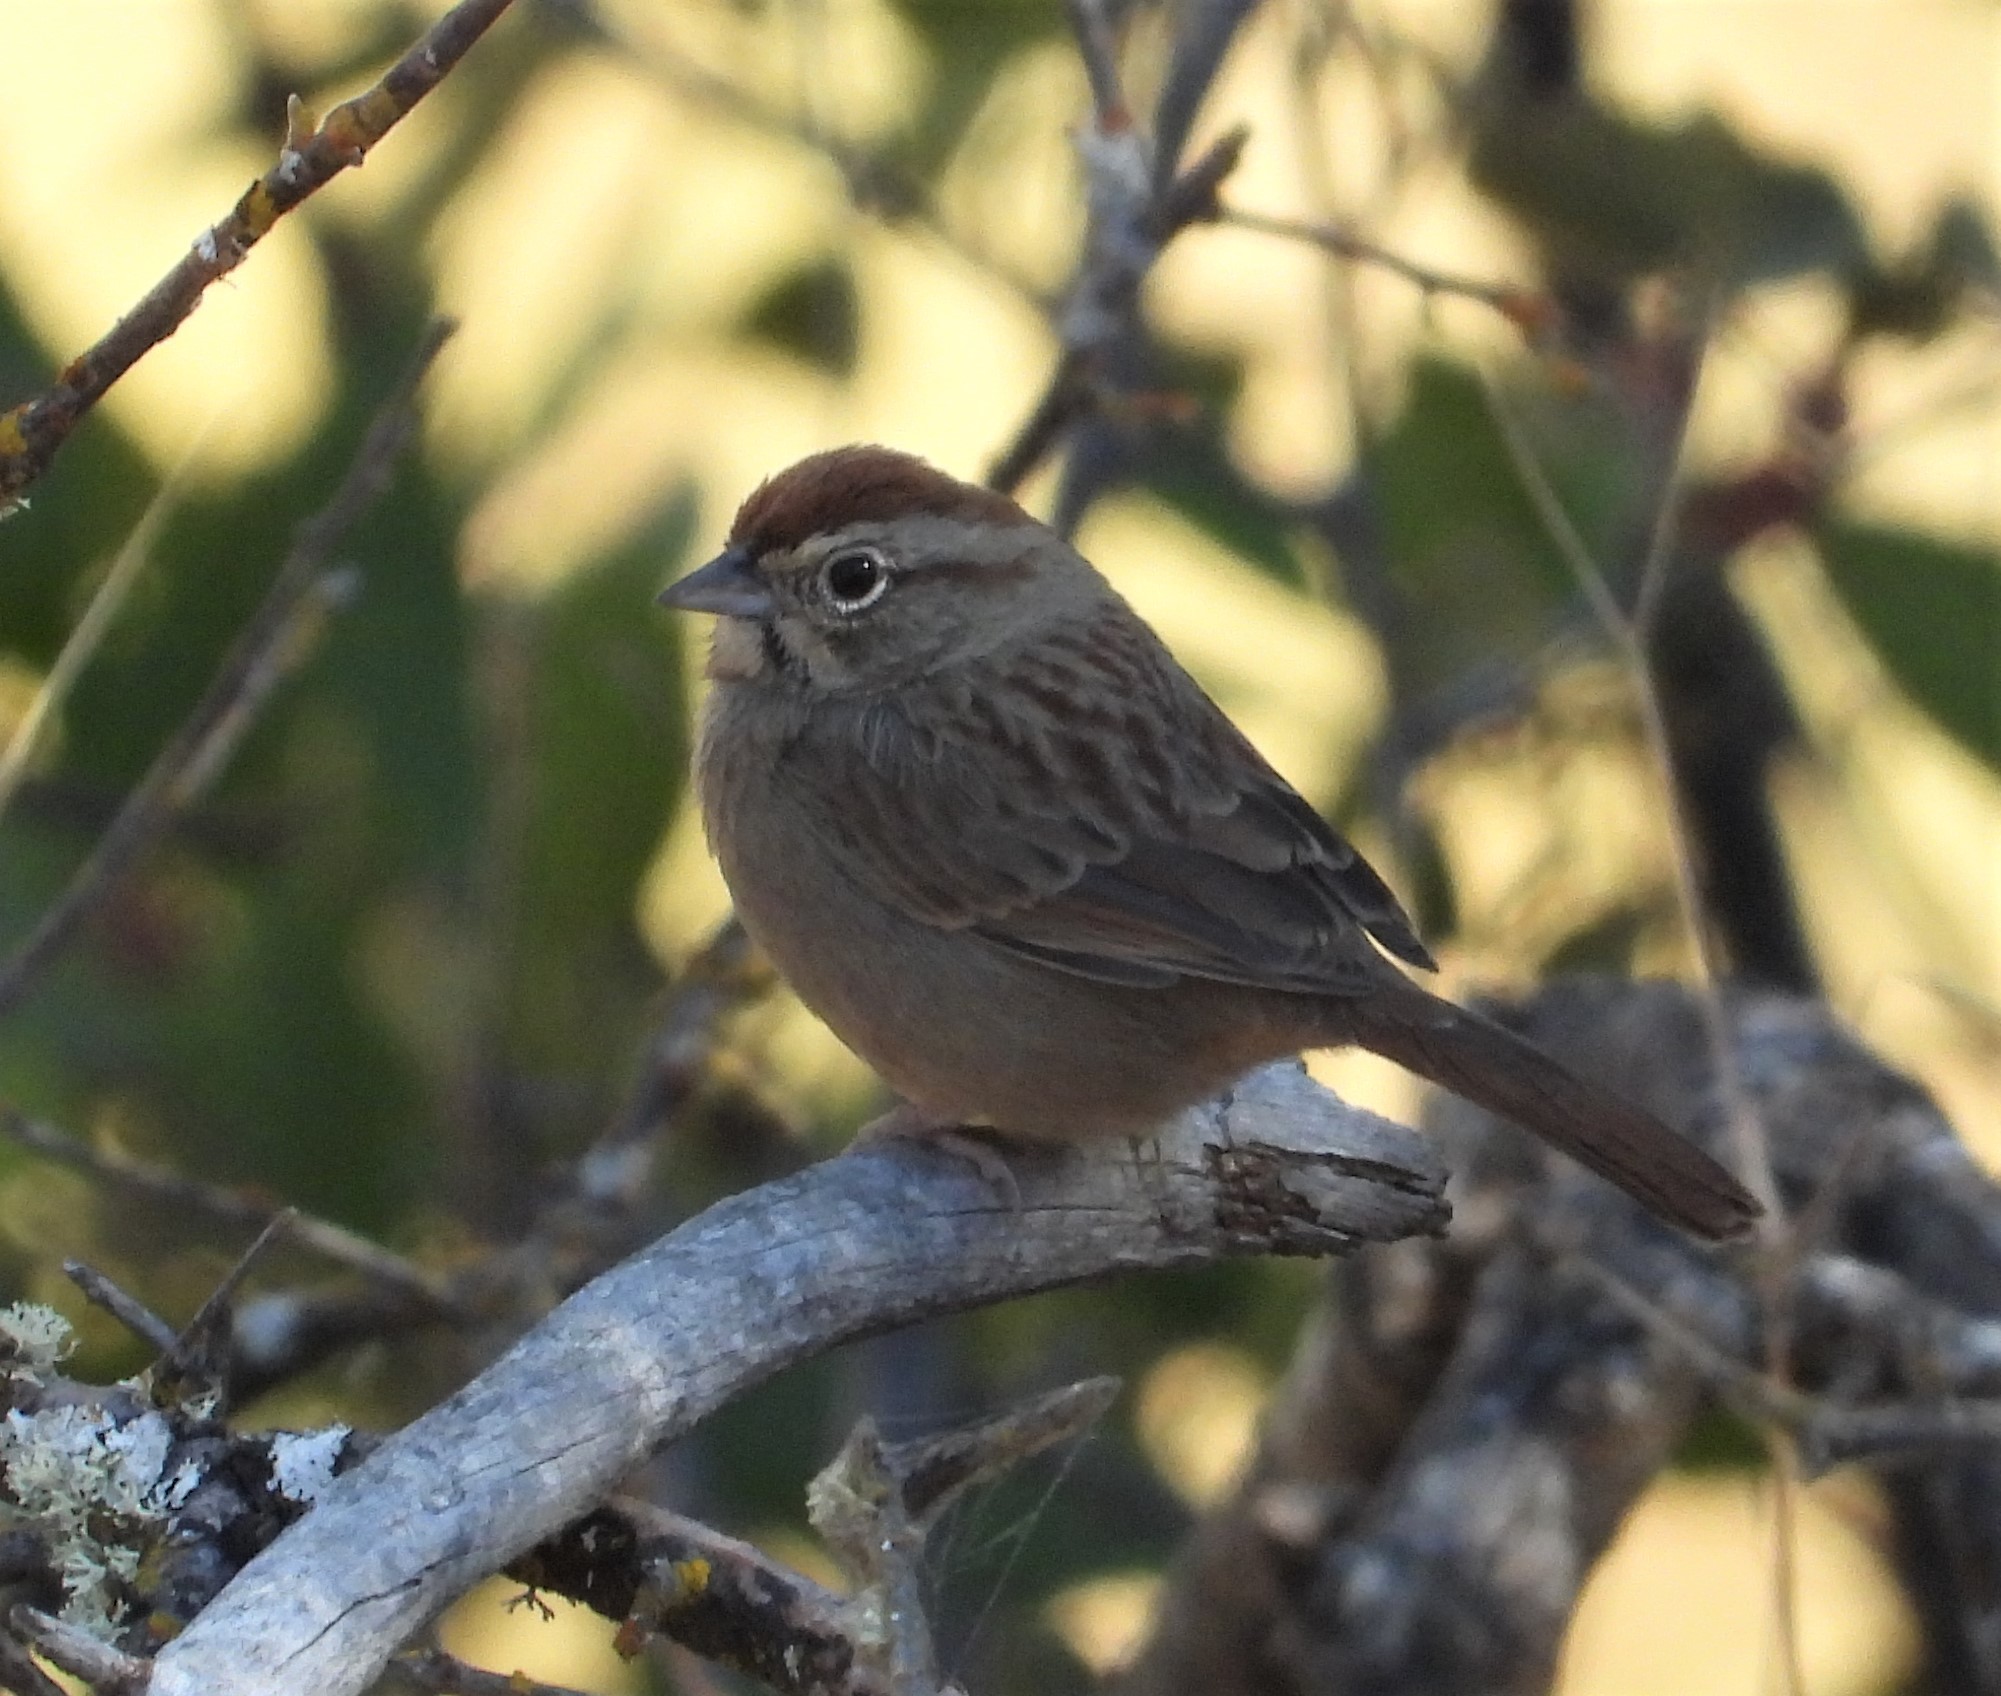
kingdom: Animalia
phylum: Chordata
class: Aves
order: Passeriformes
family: Passerellidae
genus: Aimophila
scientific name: Aimophila ruficeps
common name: Rufous-crowned sparrow
